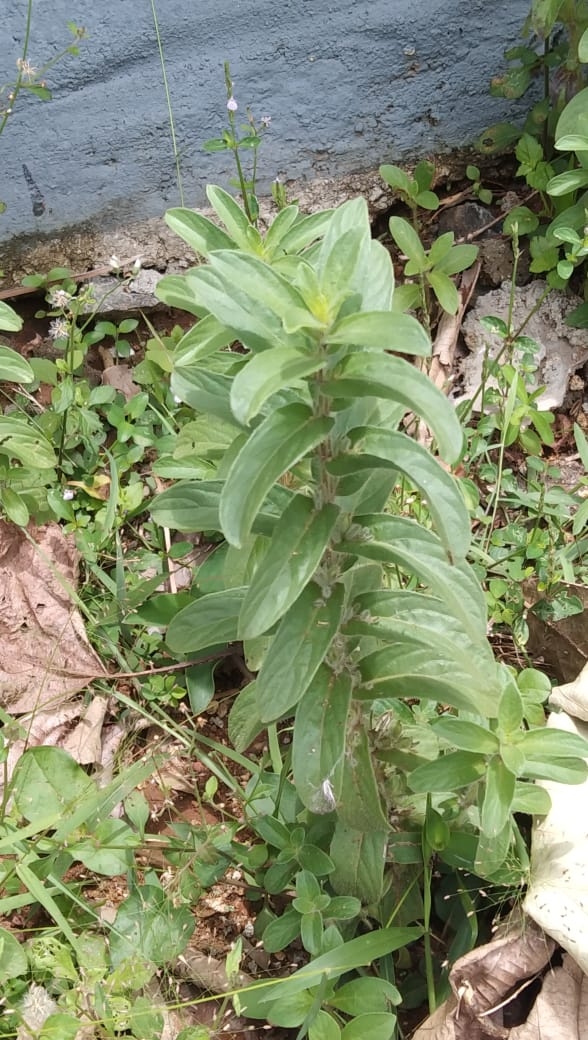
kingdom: Plantae
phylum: Tracheophyta
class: Magnoliopsida
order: Lamiales
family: Acanthaceae
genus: Andrographis
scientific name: Andrographis echioides
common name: False waterwillow
